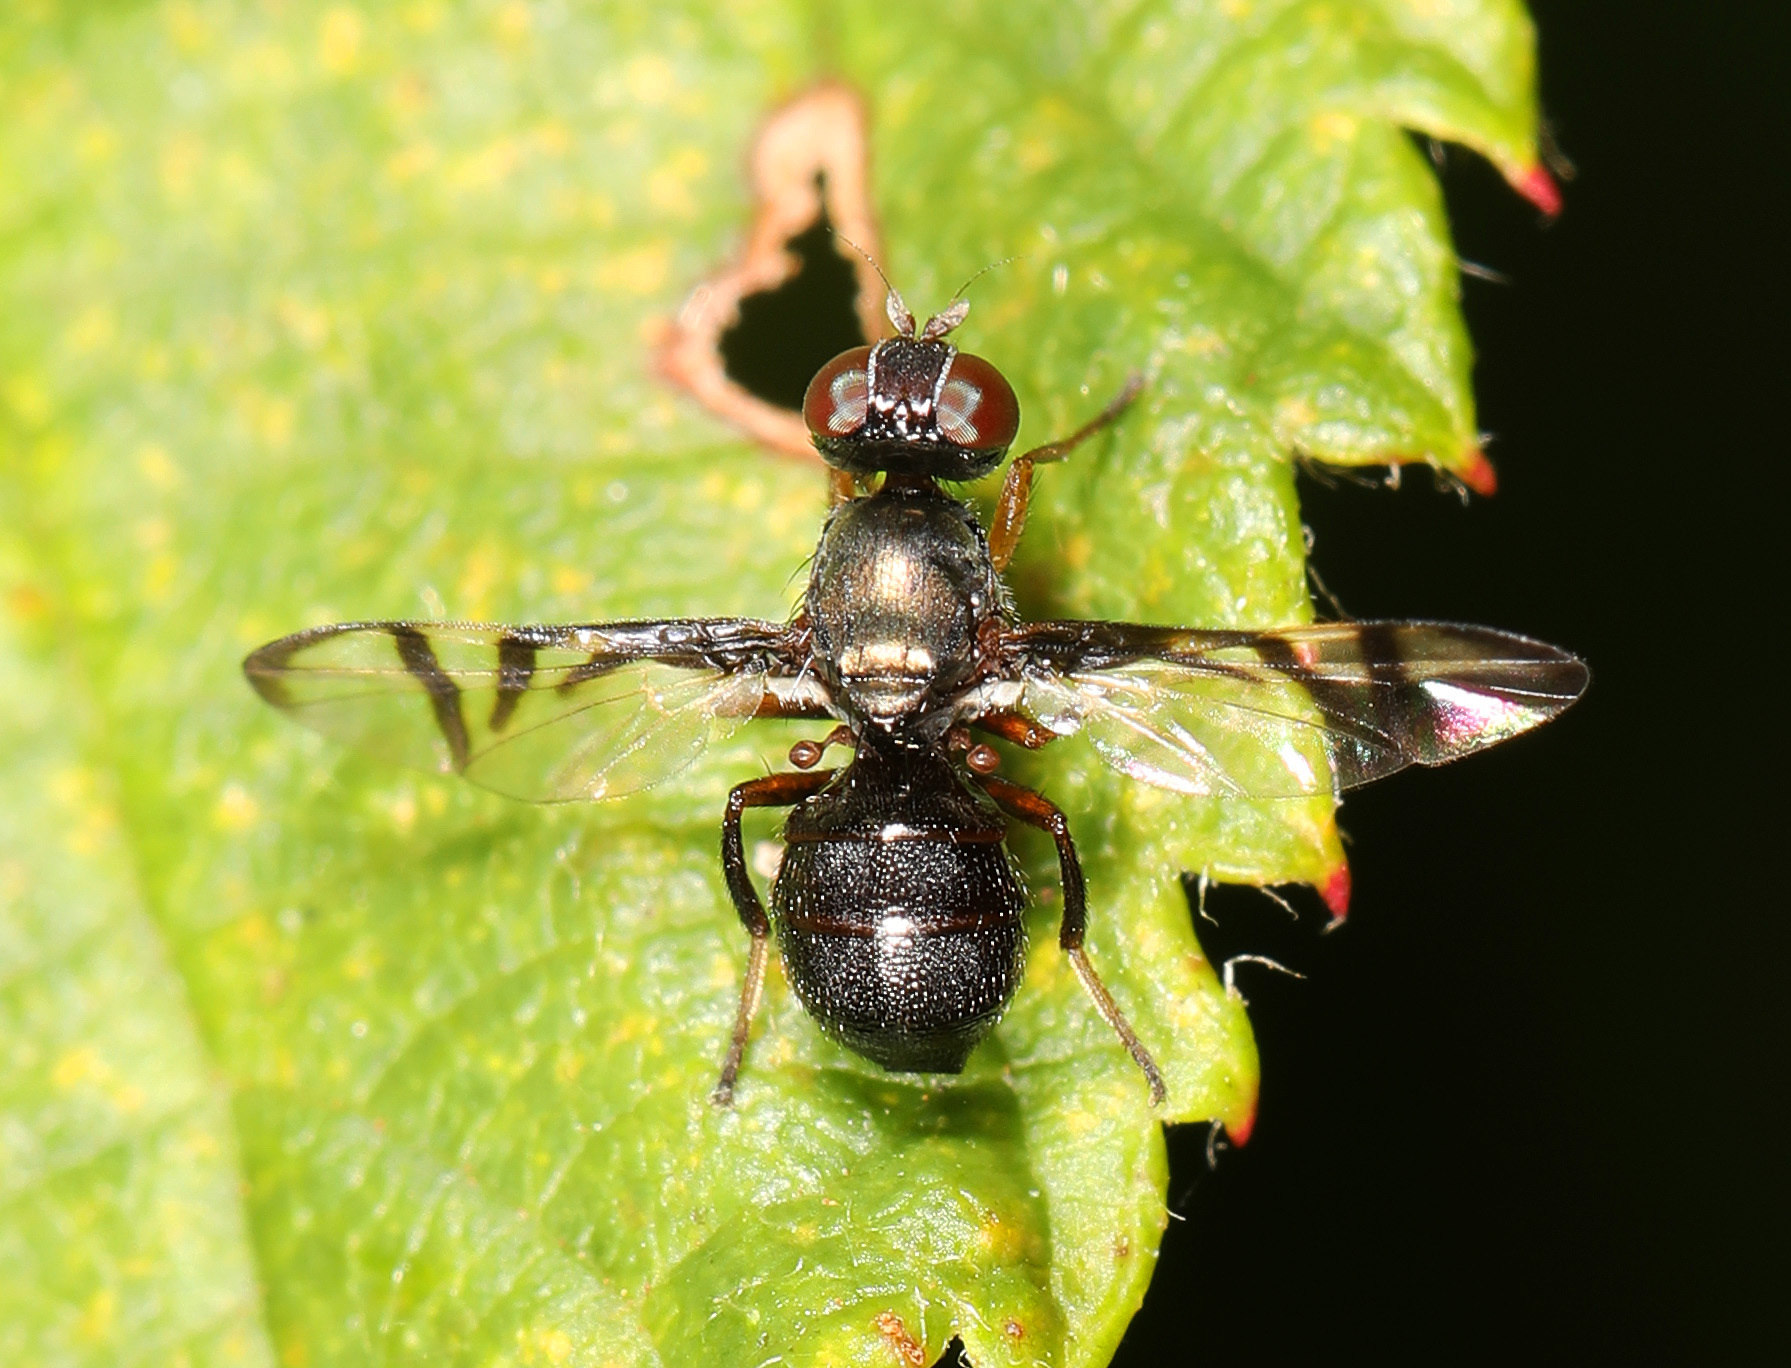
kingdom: Animalia
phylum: Arthropoda
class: Insecta
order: Diptera
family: Platystomatidae
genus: Rivellia
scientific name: Rivellia steyskali
